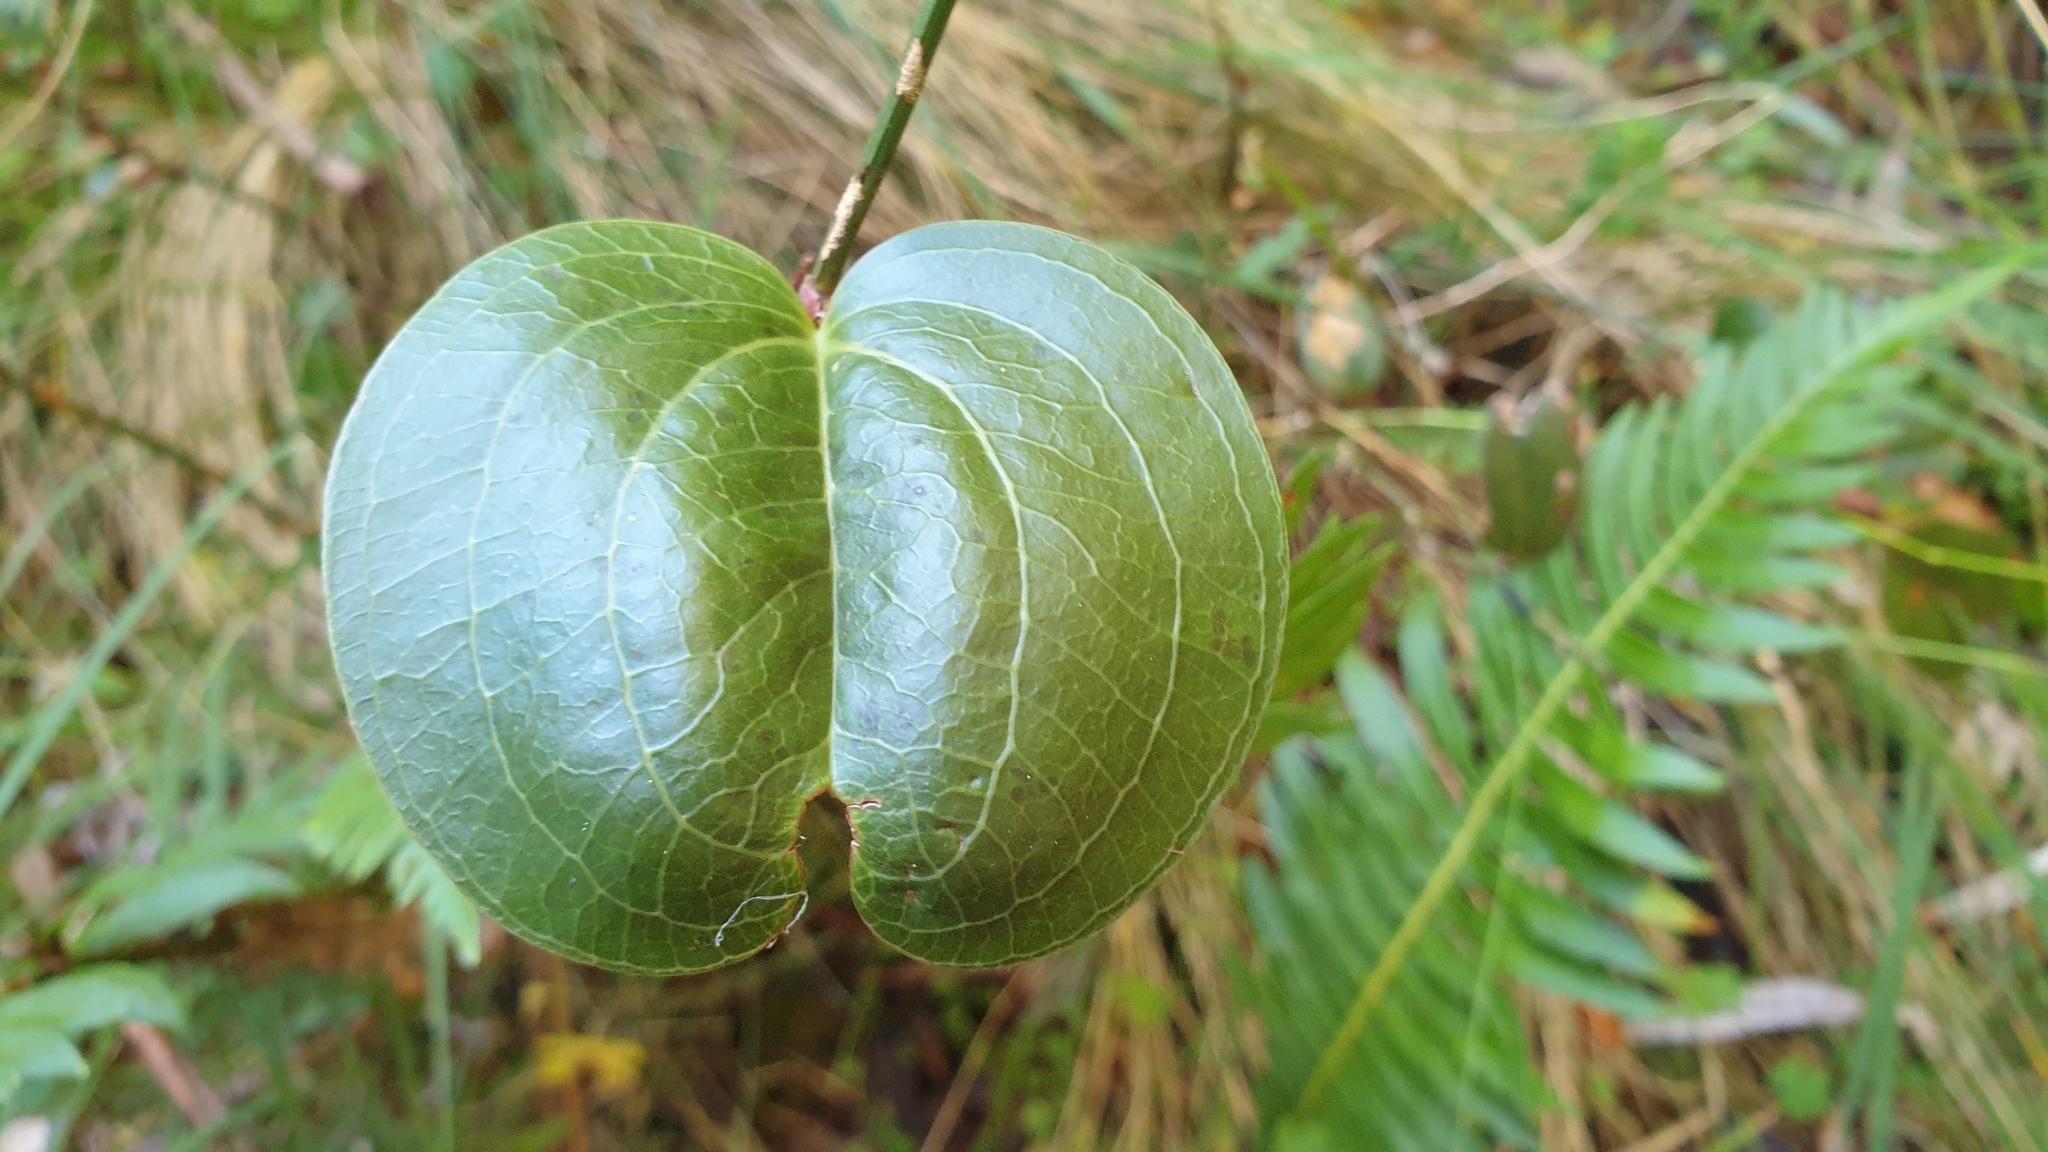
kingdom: Plantae
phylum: Tracheophyta
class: Liliopsida
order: Liliales
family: Smilacaceae
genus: Smilax
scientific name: Smilax australis
